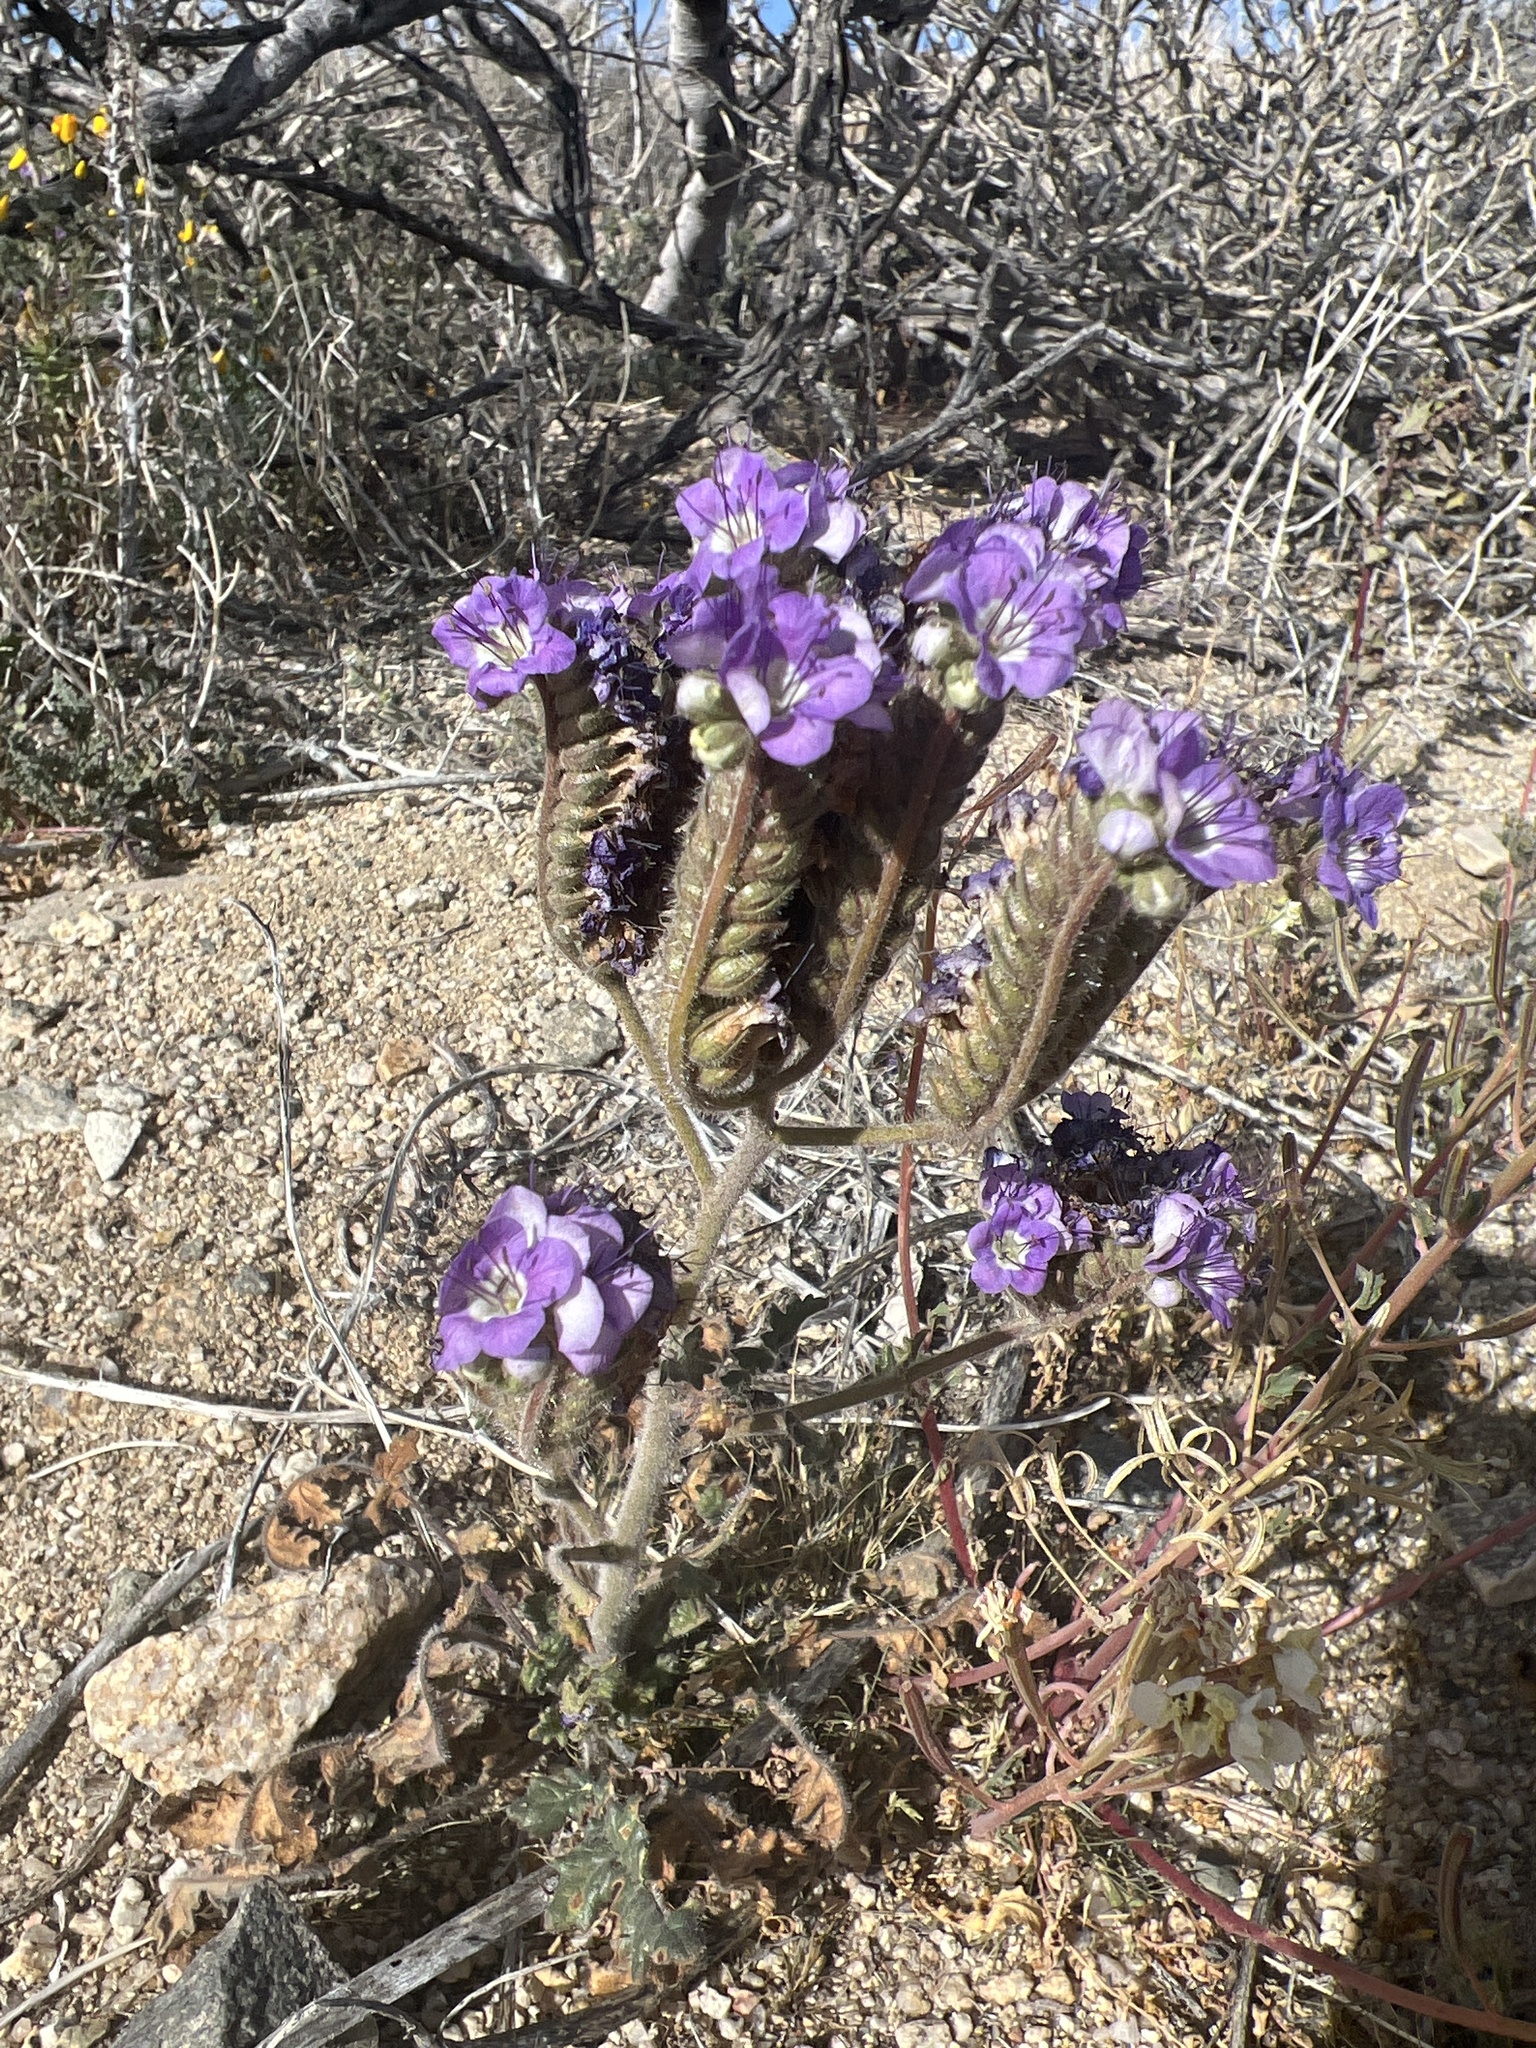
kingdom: Plantae
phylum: Tracheophyta
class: Magnoliopsida
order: Boraginales
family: Hydrophyllaceae
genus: Phacelia
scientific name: Phacelia crenulata
